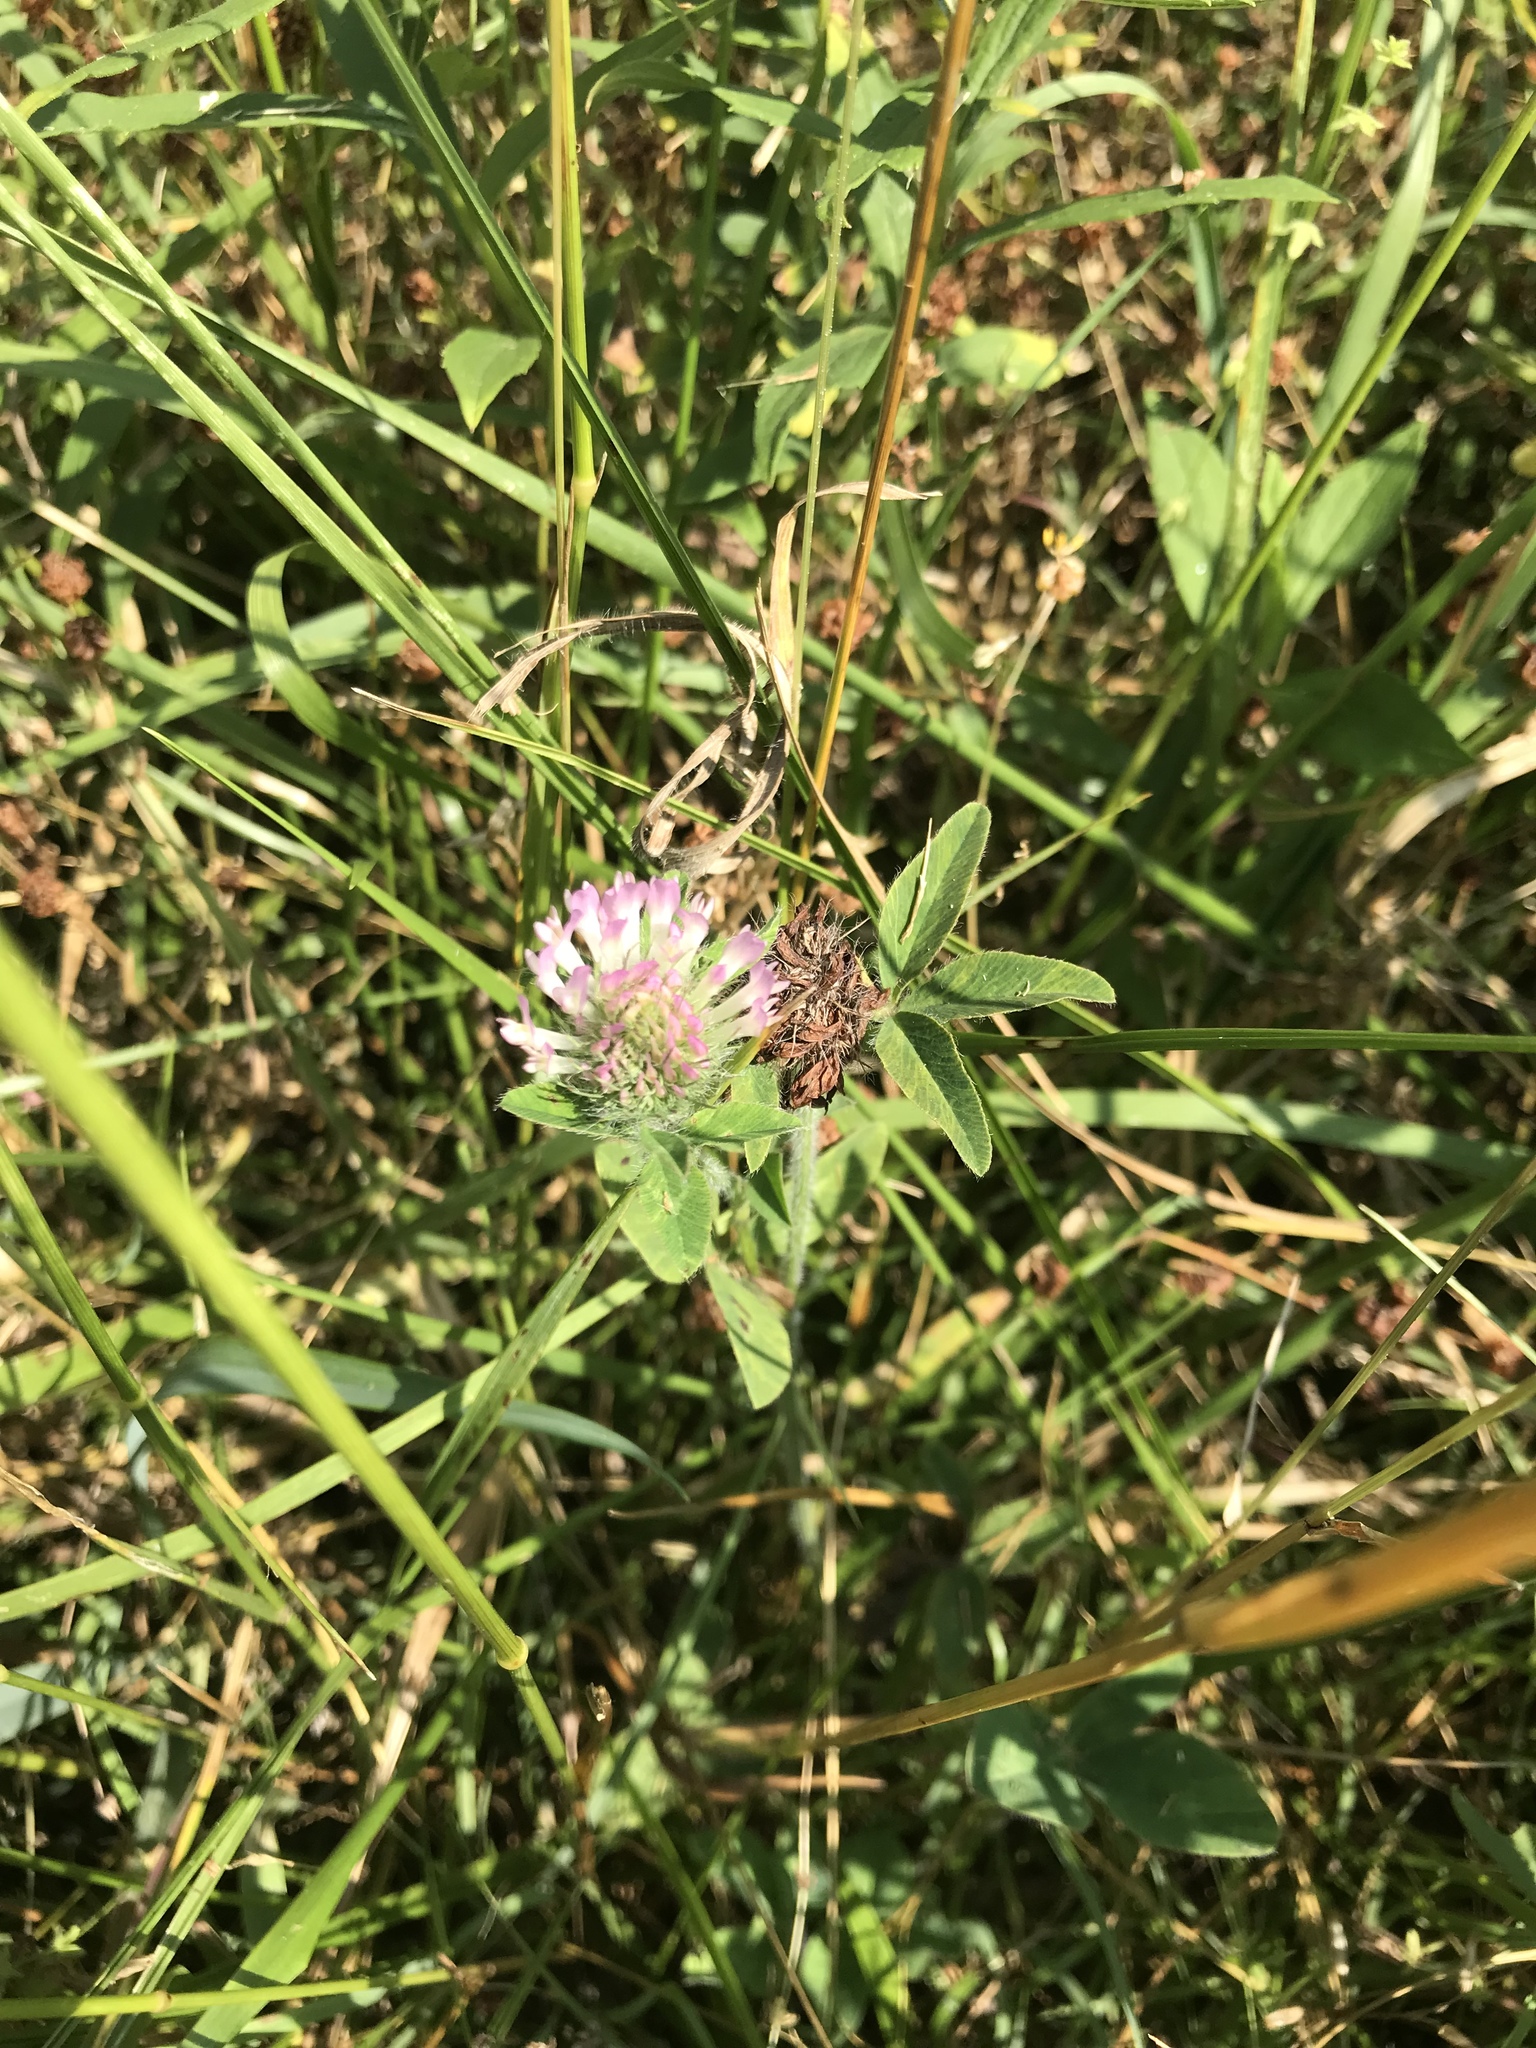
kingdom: Plantae
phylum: Tracheophyta
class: Magnoliopsida
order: Fabales
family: Fabaceae
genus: Trifolium
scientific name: Trifolium pratense
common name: Red clover
